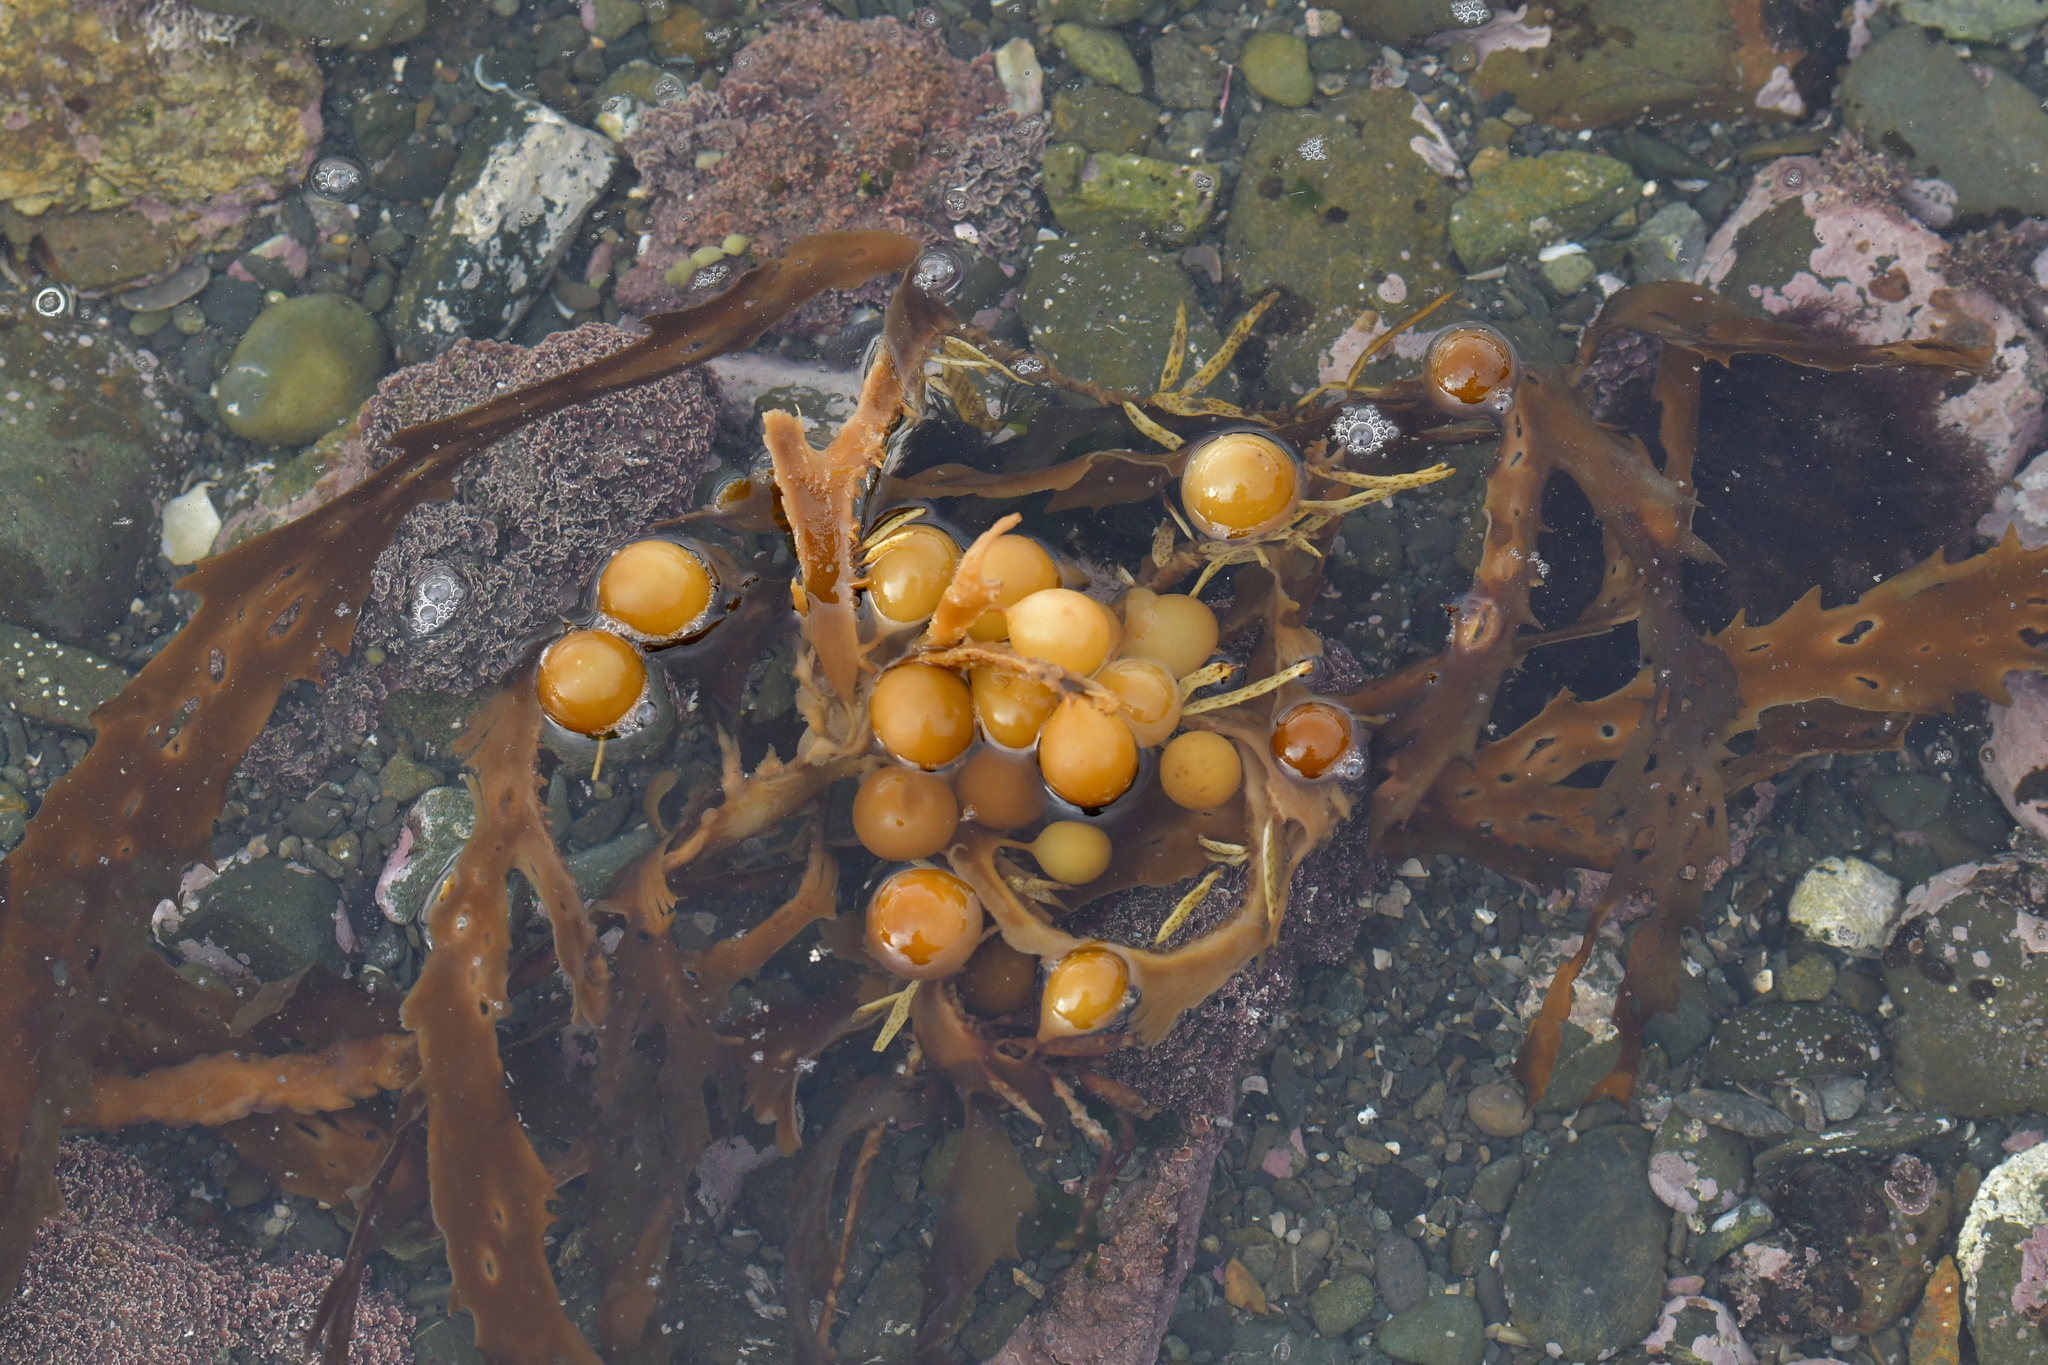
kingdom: Chromista
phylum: Ochrophyta
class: Phaeophyceae
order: Fucales
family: Seirococcaceae
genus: Marginariella
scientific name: Marginariella urvilliana
